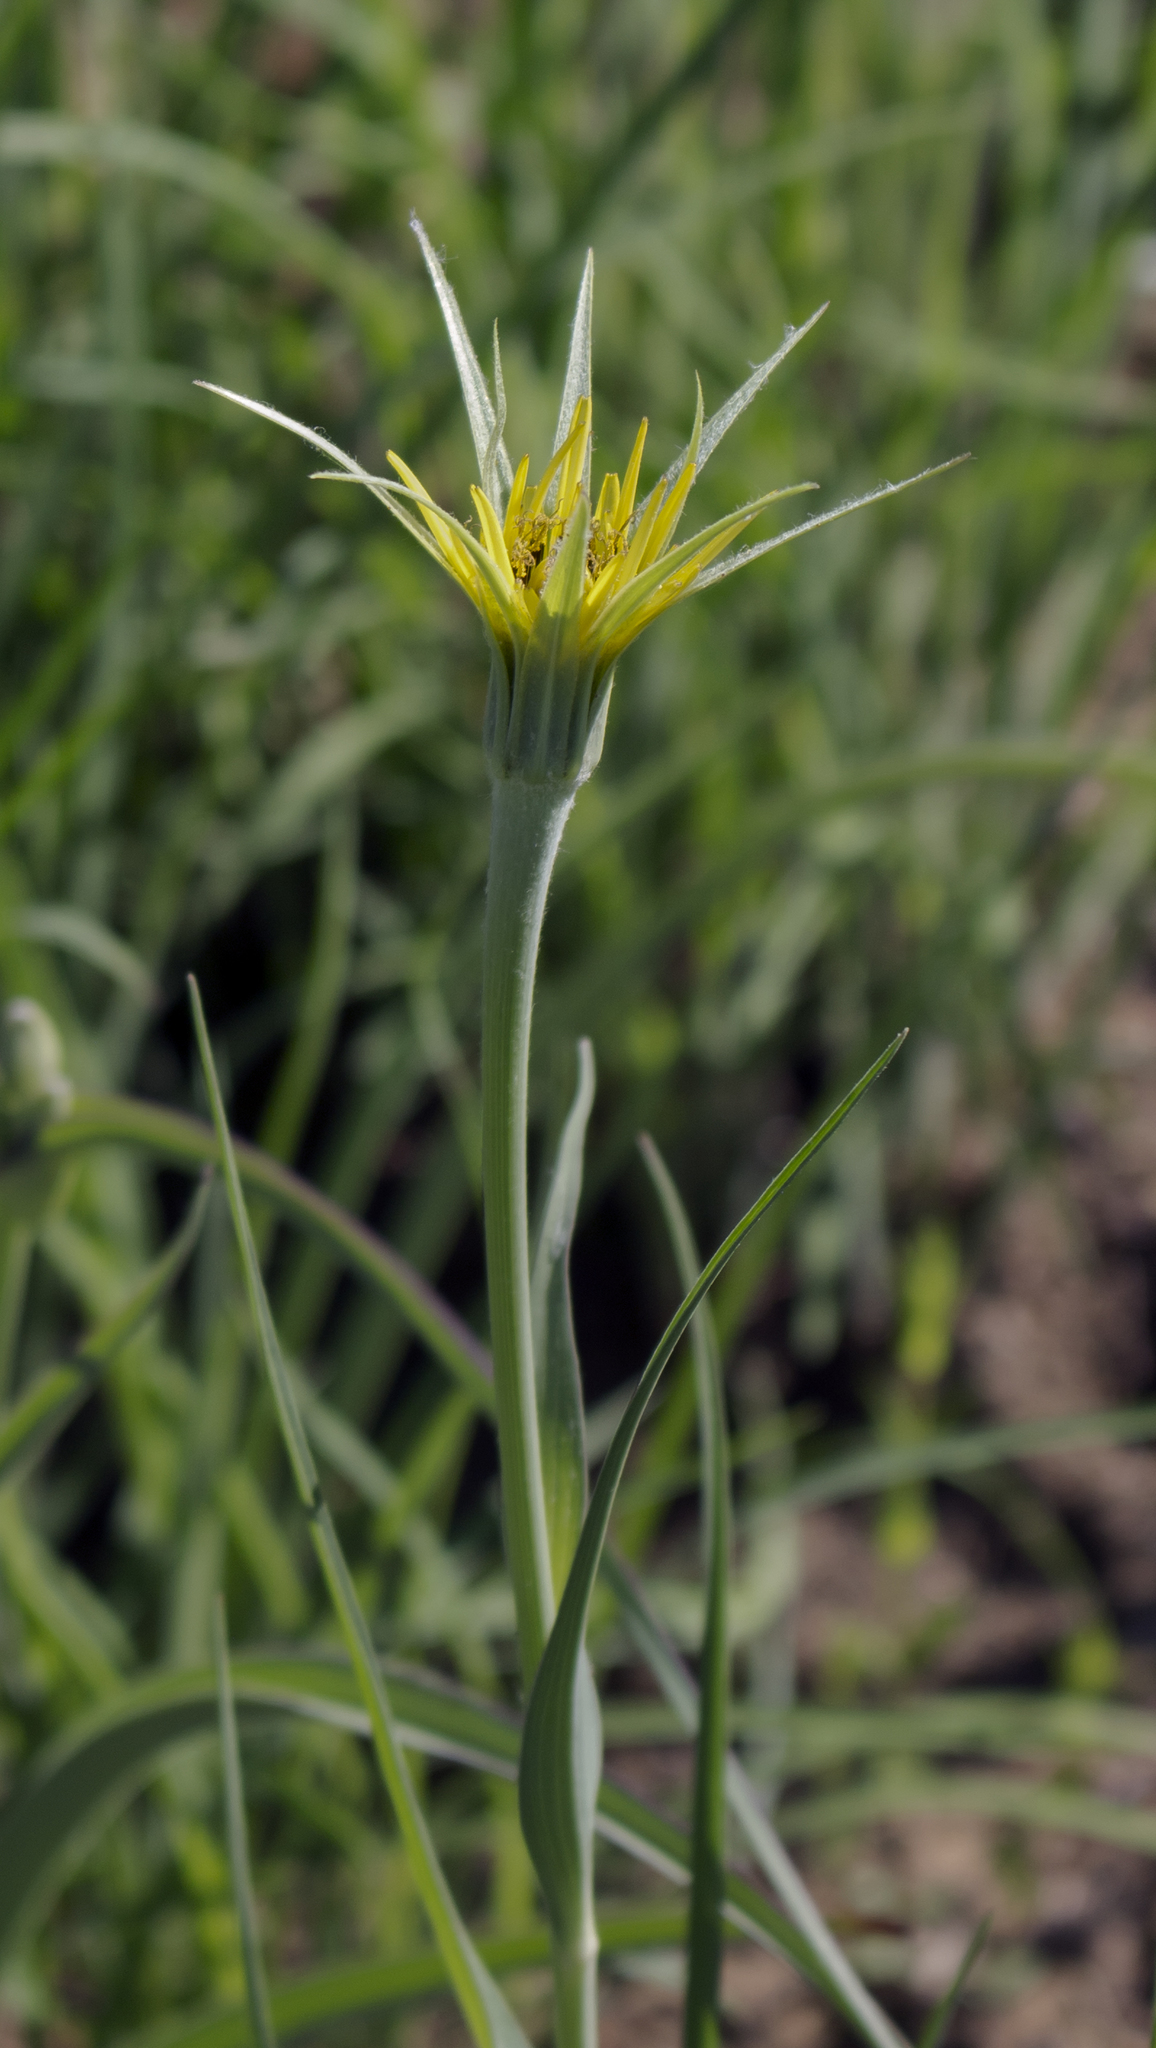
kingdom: Plantae
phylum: Tracheophyta
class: Magnoliopsida
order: Asterales
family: Asteraceae
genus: Tragopogon
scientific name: Tragopogon dubius
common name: Yellow salsify
